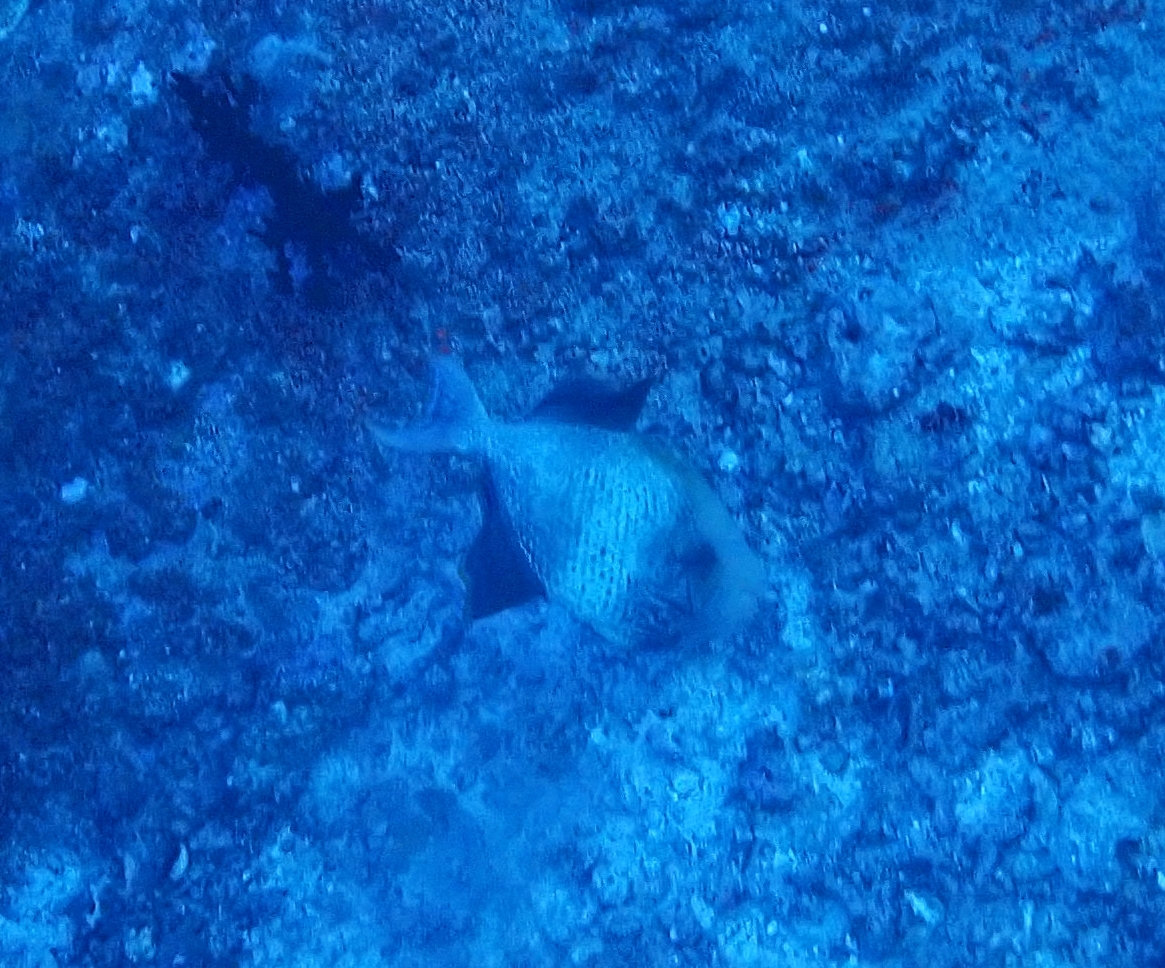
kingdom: Animalia
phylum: Chordata
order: Tetraodontiformes
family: Balistidae
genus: Pseudobalistes
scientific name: Pseudobalistes flavimarginatus
